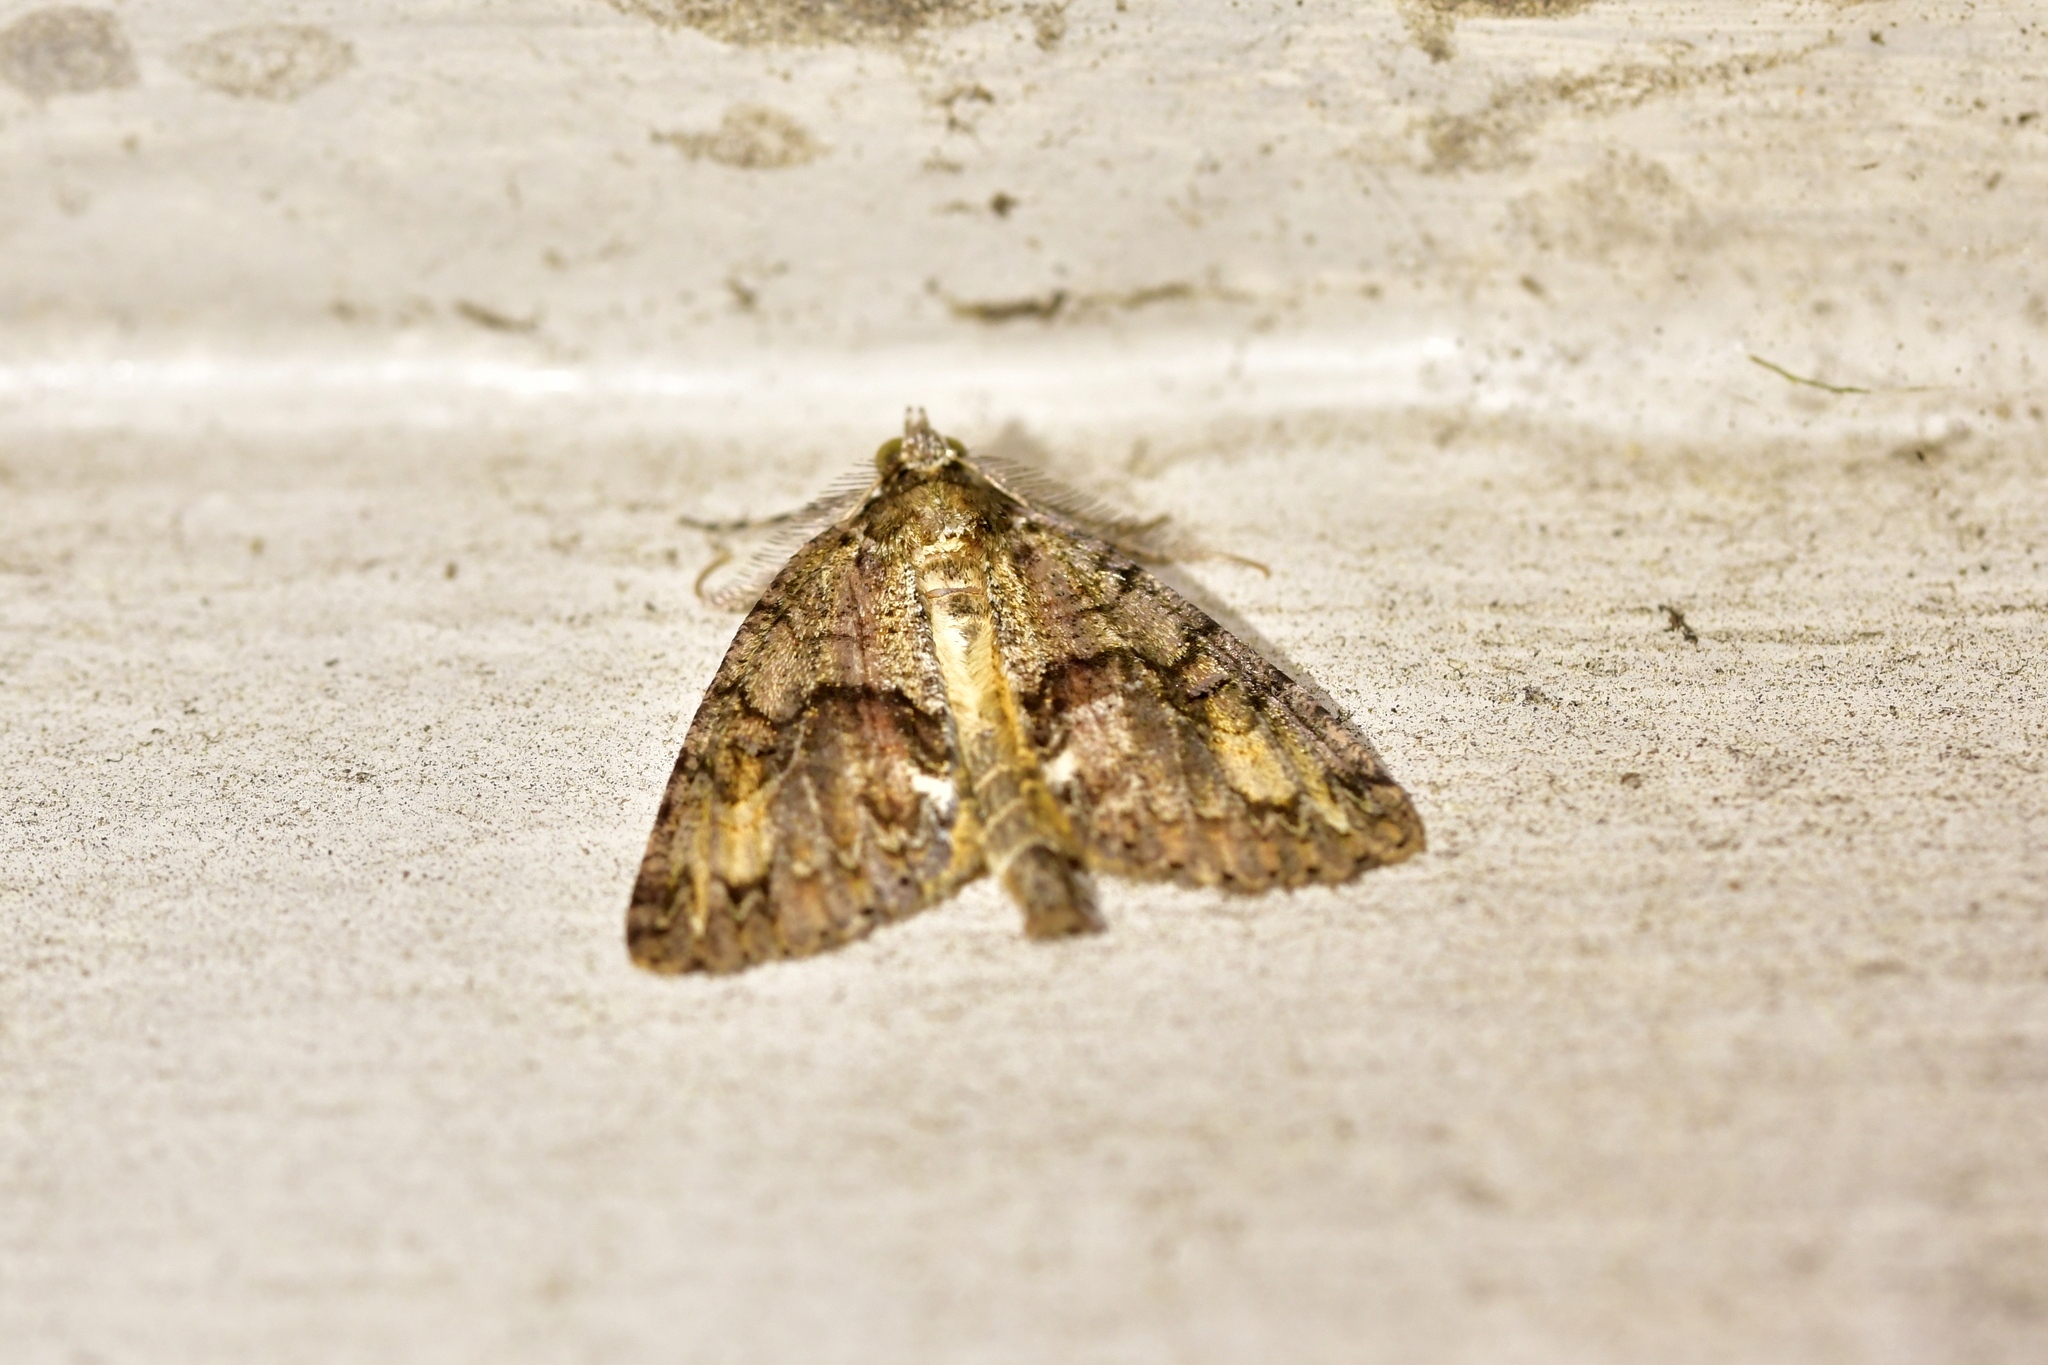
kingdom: Animalia
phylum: Arthropoda
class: Insecta
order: Lepidoptera
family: Geometridae
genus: Pseudocoremia
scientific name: Pseudocoremia suavis
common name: Common forest looper
